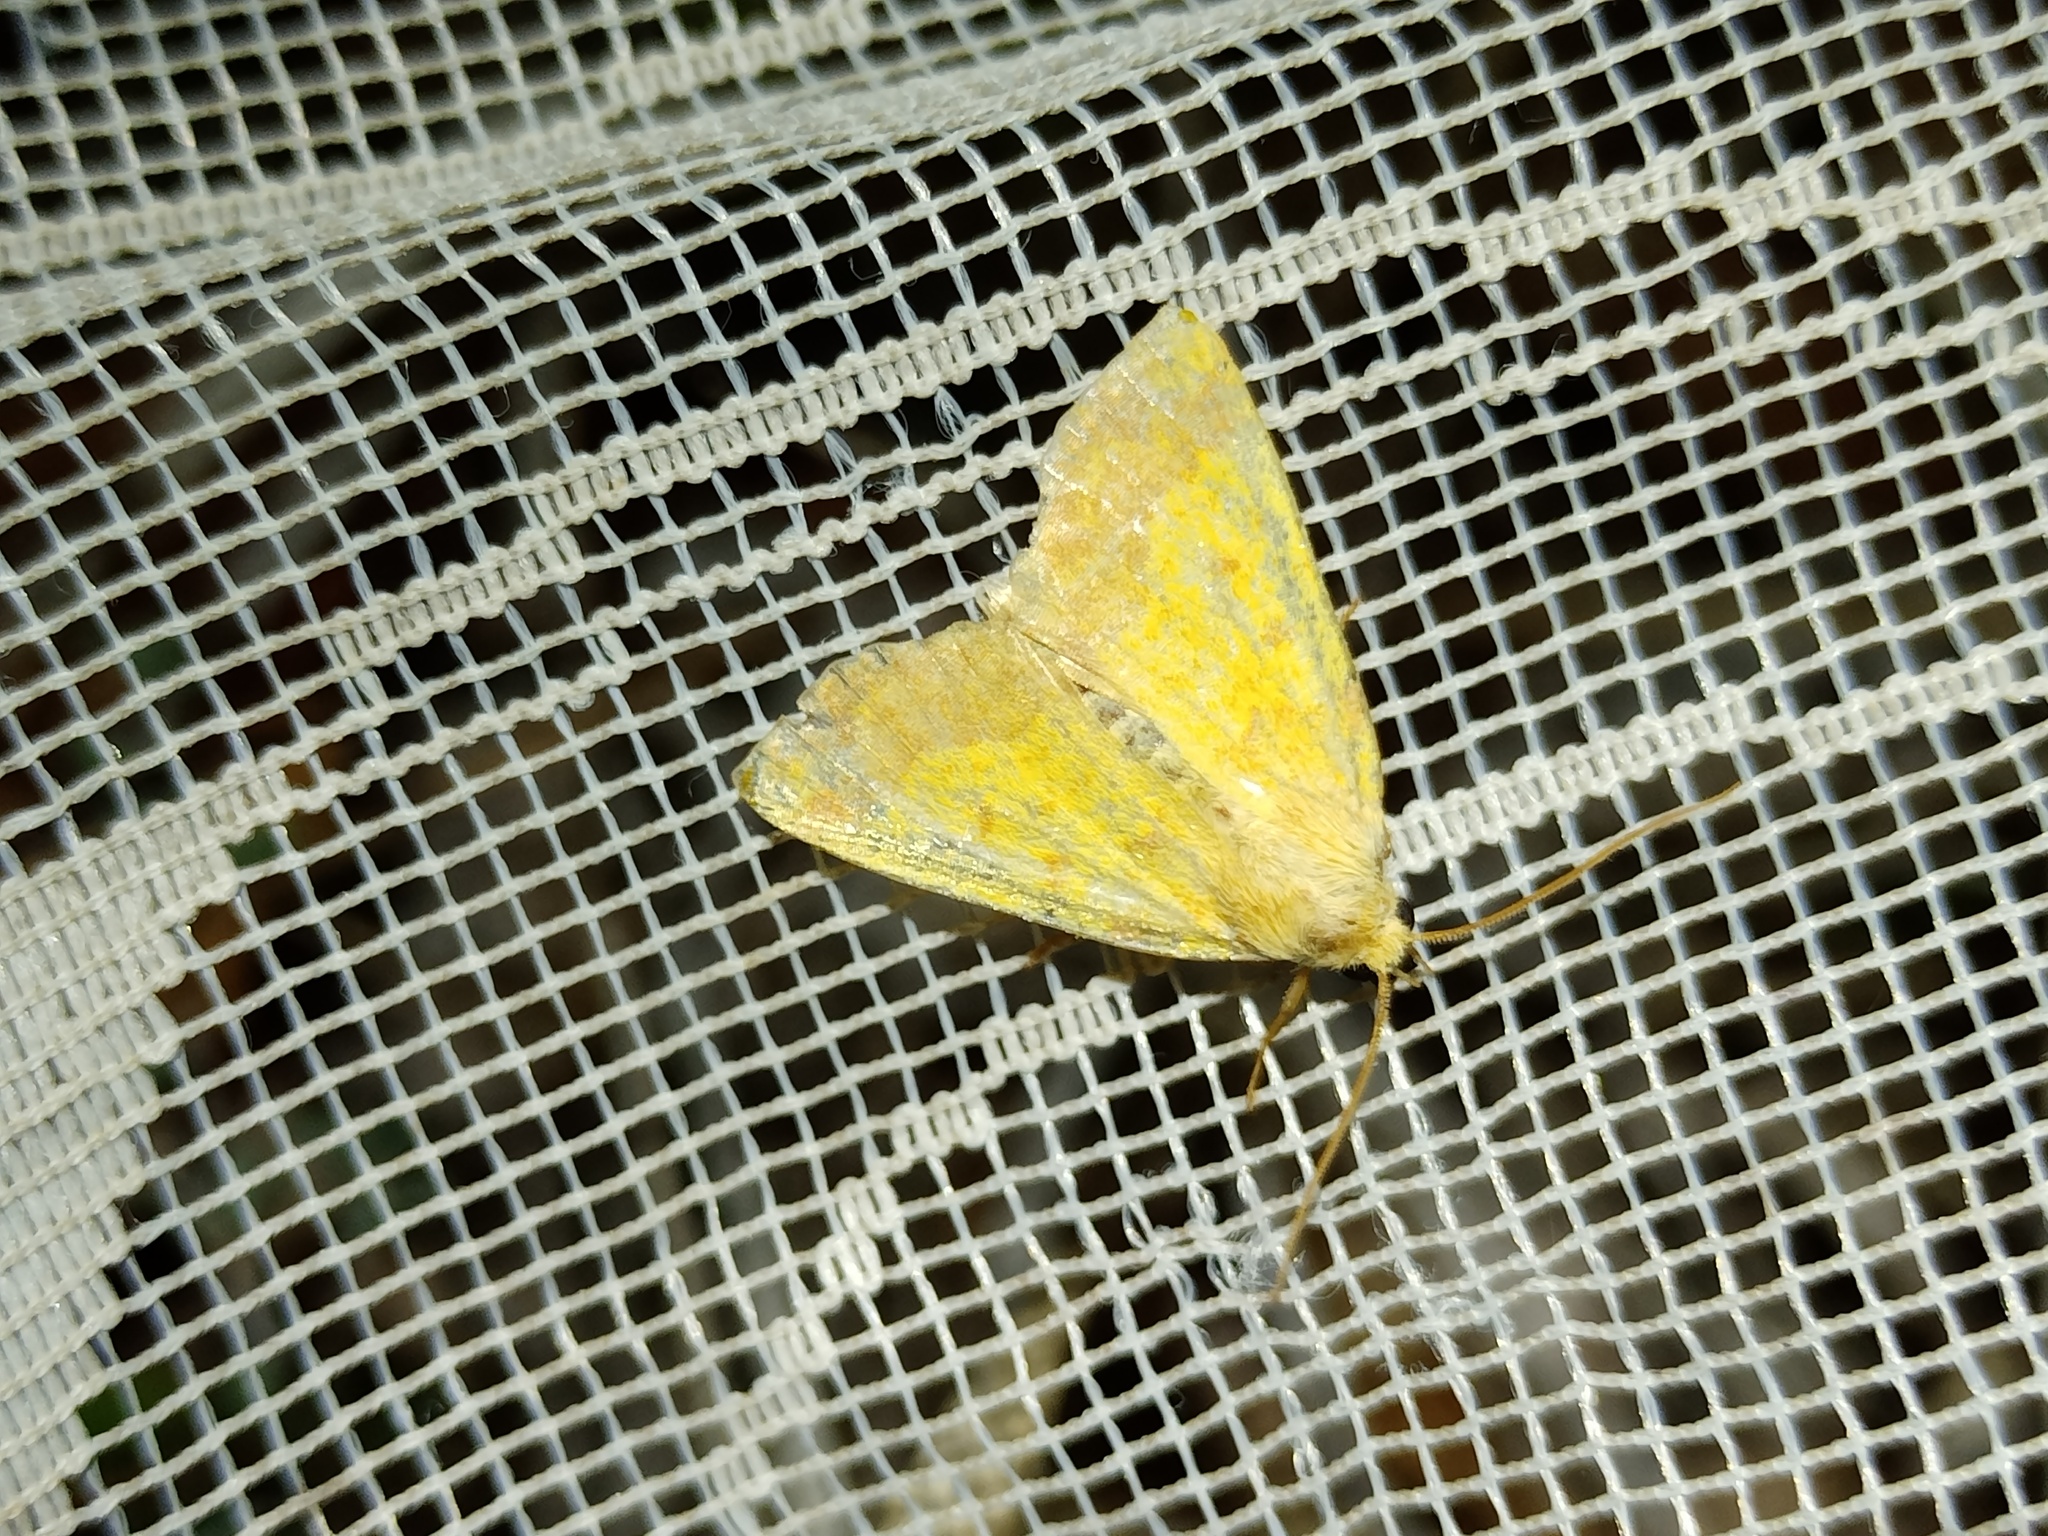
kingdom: Animalia
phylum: Arthropoda
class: Insecta
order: Lepidoptera
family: Noctuidae
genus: Tiliacea
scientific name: Tiliacea aurago
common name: Barred sallow
